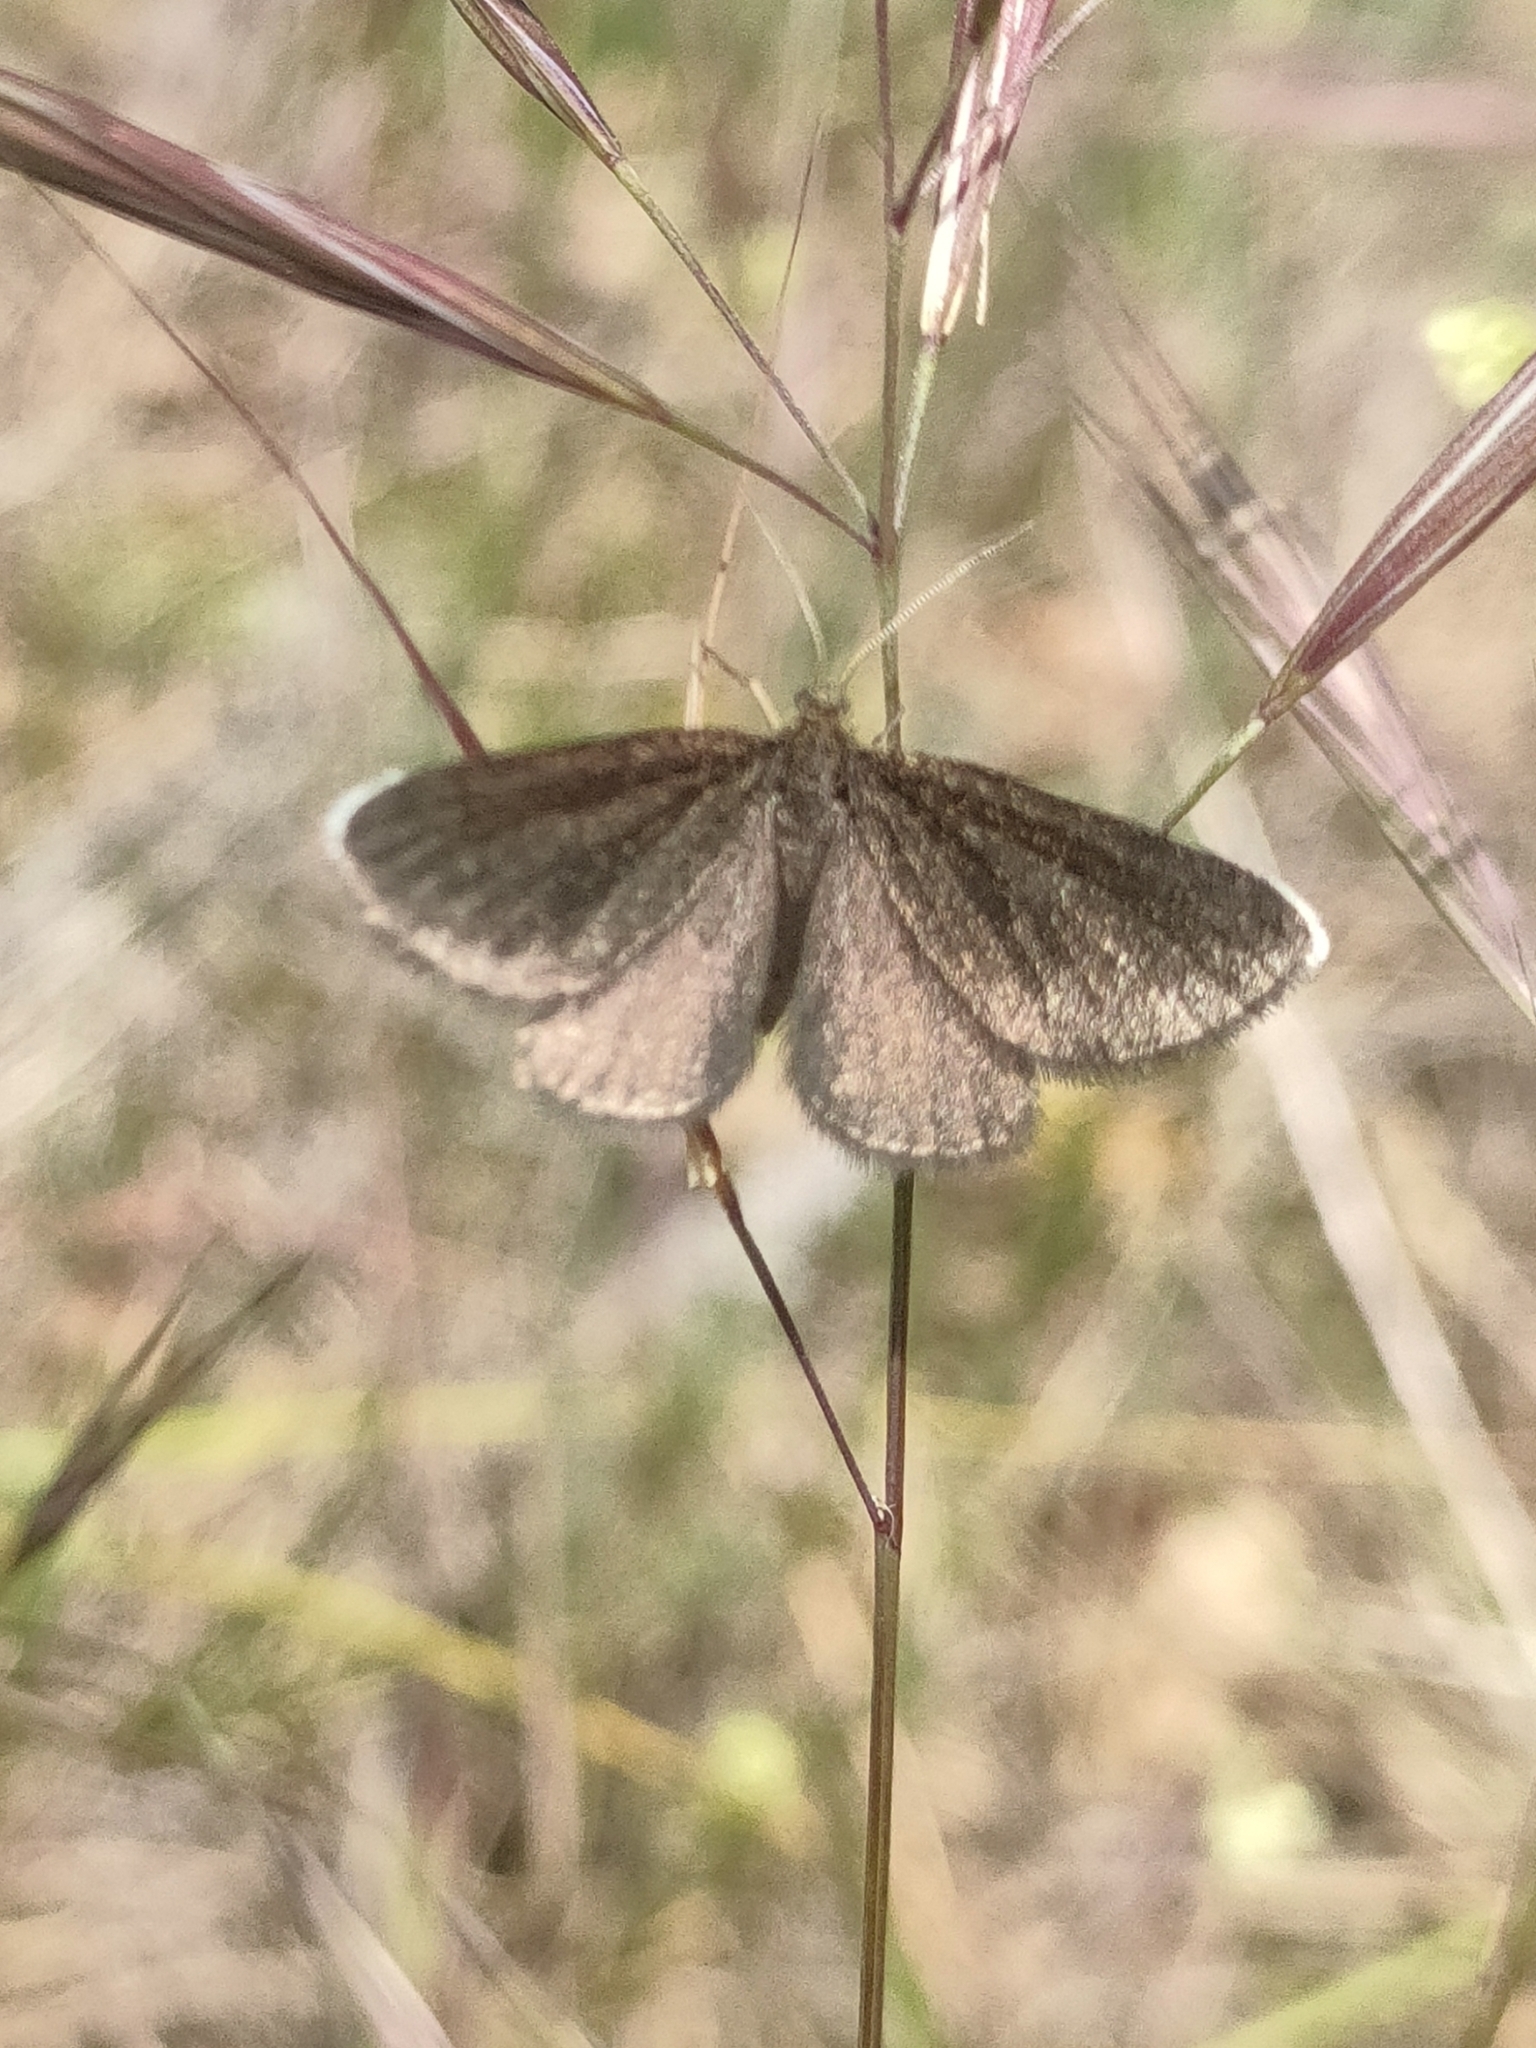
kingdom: Animalia
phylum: Arthropoda
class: Insecta
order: Lepidoptera
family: Geometridae
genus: Odezia
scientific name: Odezia atrata
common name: Chimney sweeper
